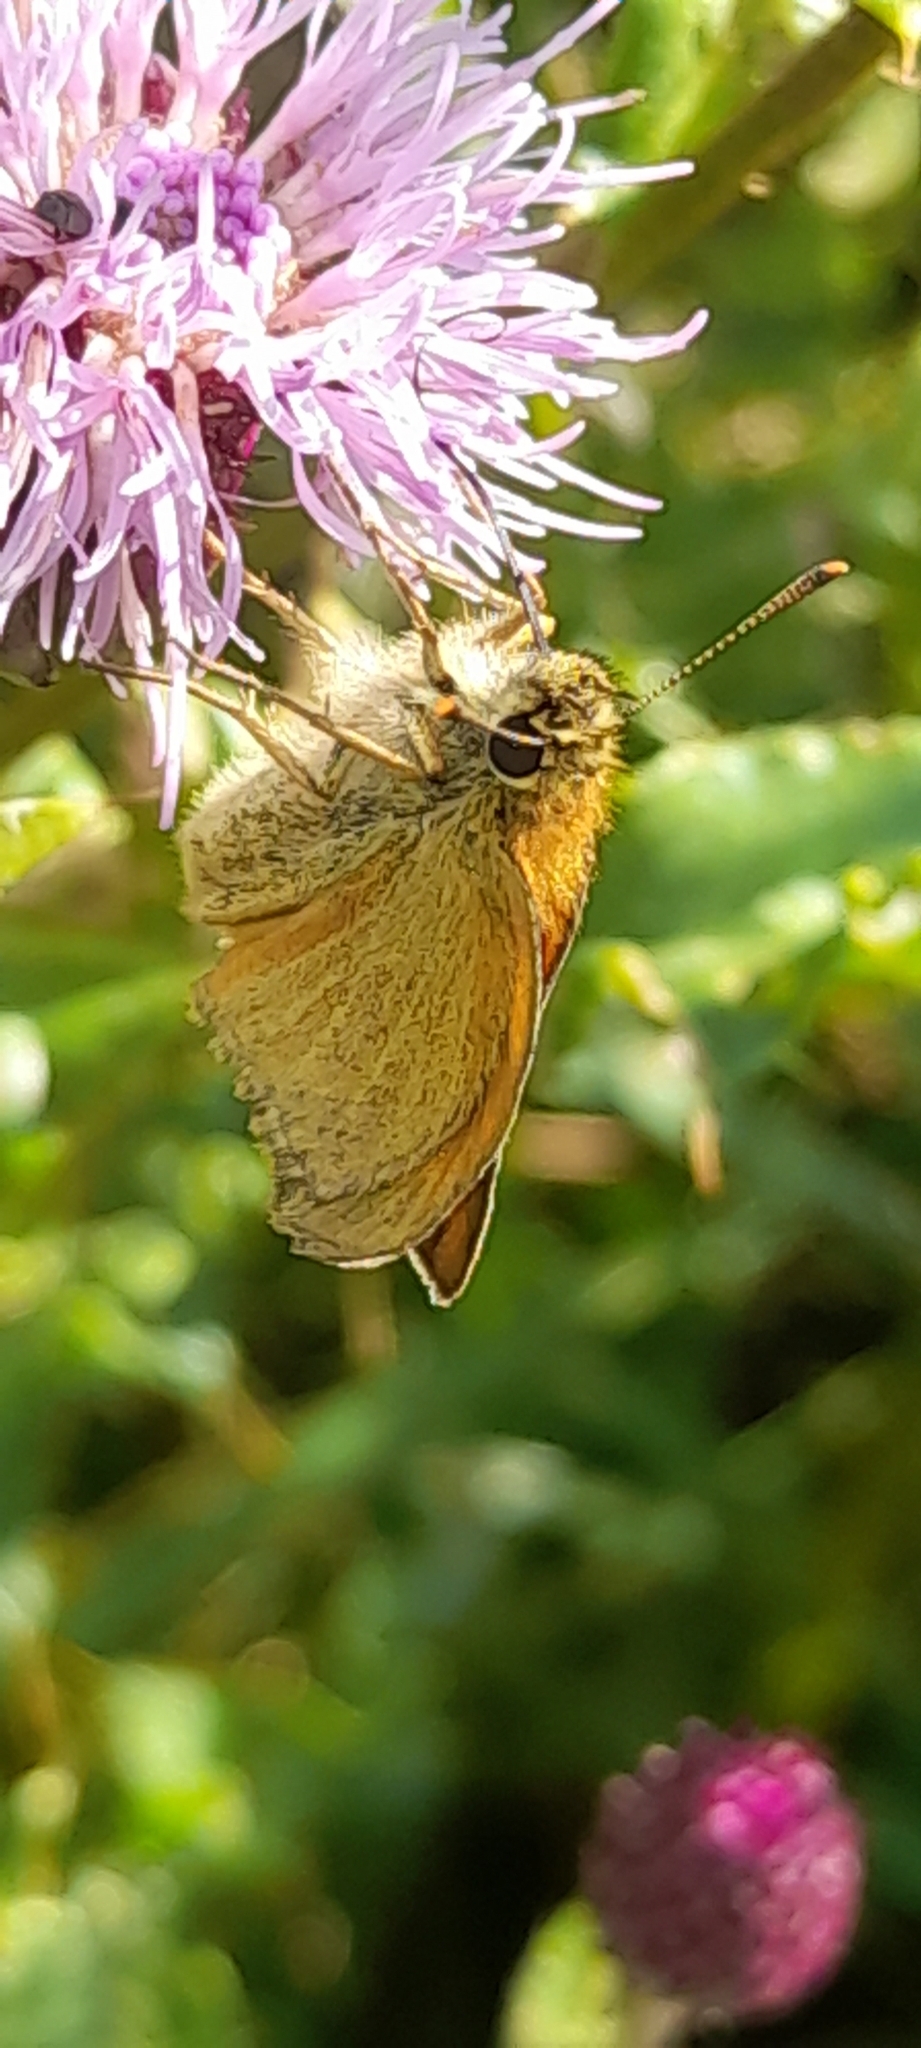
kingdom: Animalia
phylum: Arthropoda
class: Insecta
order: Lepidoptera
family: Hesperiidae
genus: Thymelicus
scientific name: Thymelicus sylvestris
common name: Small skipper
